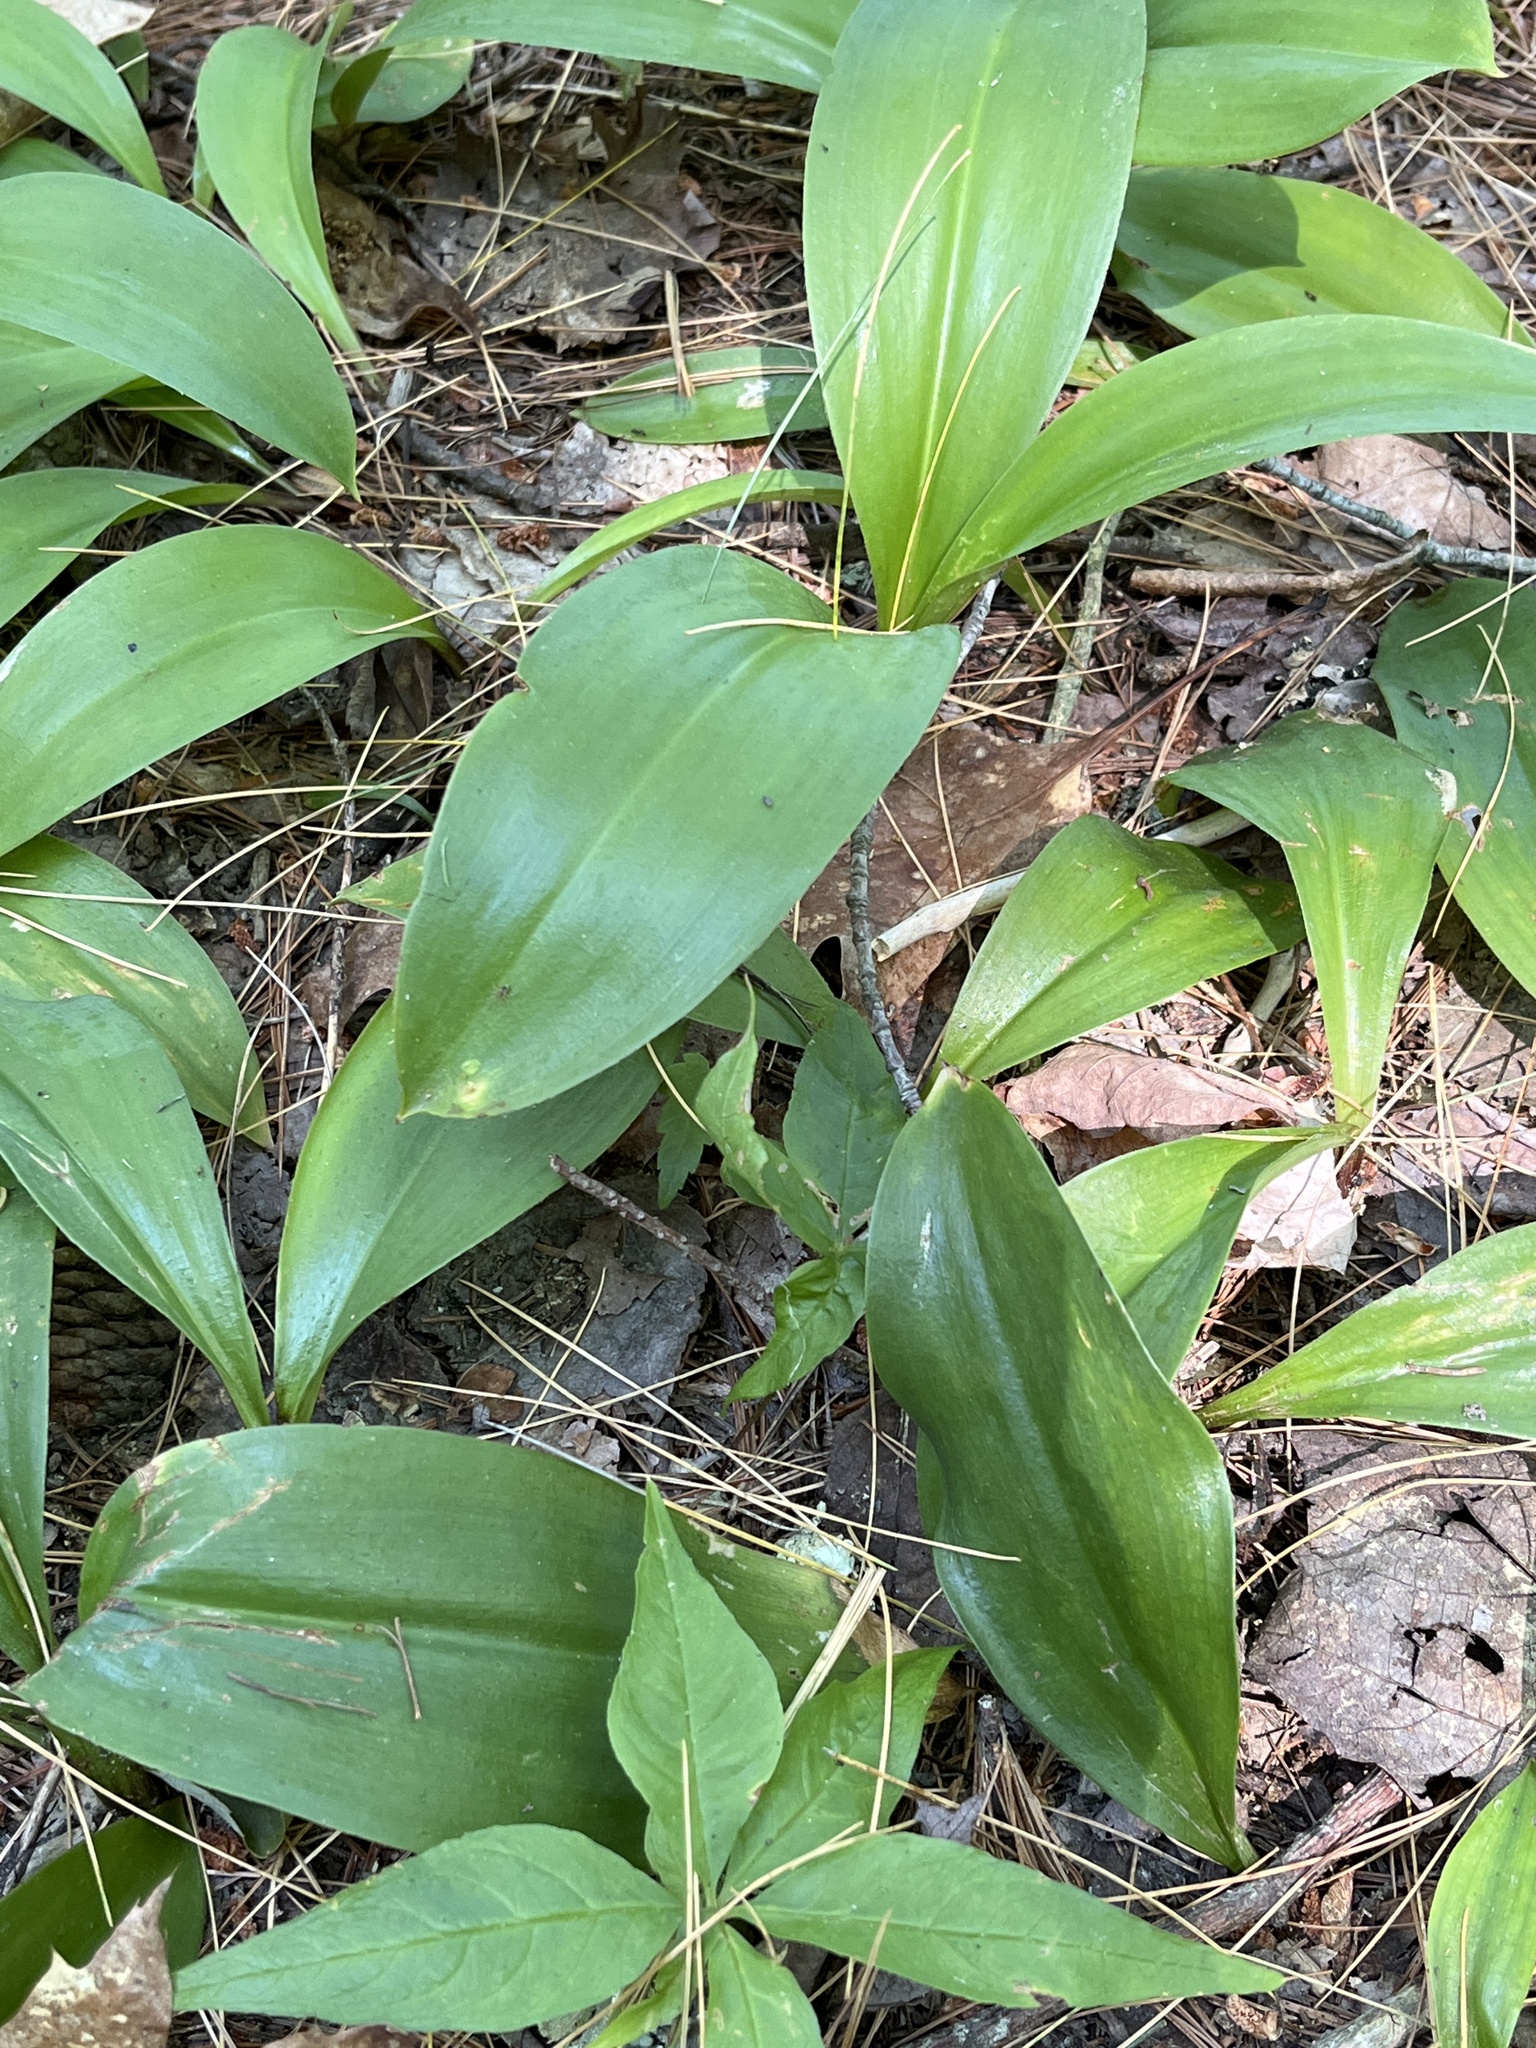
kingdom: Plantae
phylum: Tracheophyta
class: Liliopsida
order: Liliales
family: Liliaceae
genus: Clintonia
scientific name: Clintonia borealis
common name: Yellow clintonia
